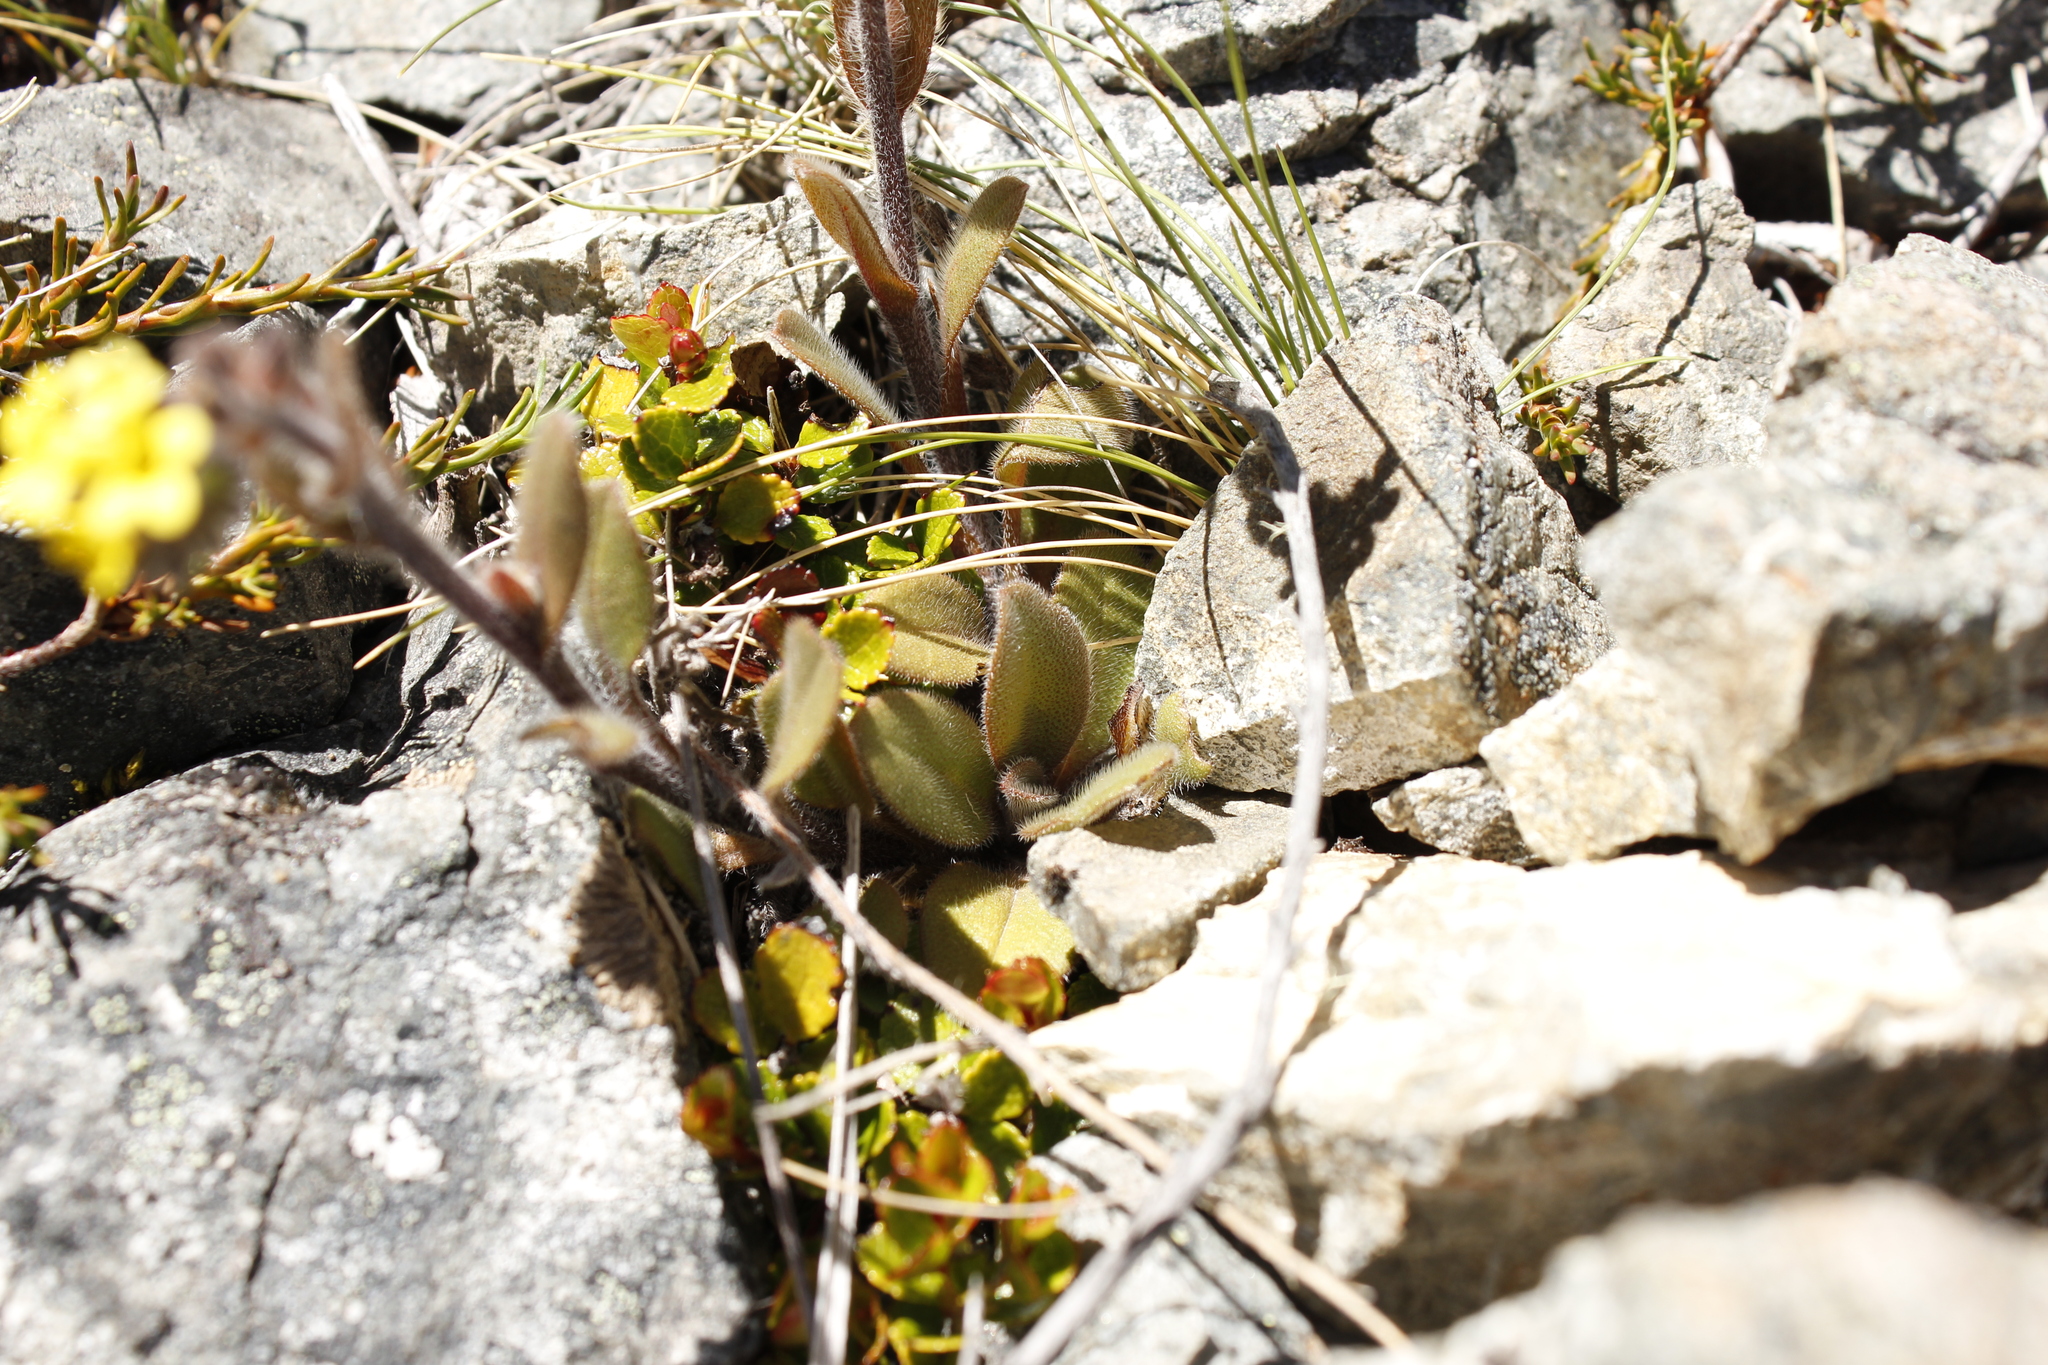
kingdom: Plantae
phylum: Tracheophyta
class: Magnoliopsida
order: Boraginales
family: Boraginaceae
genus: Myosotis
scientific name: Myosotis australis
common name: Australian forget-me-not
